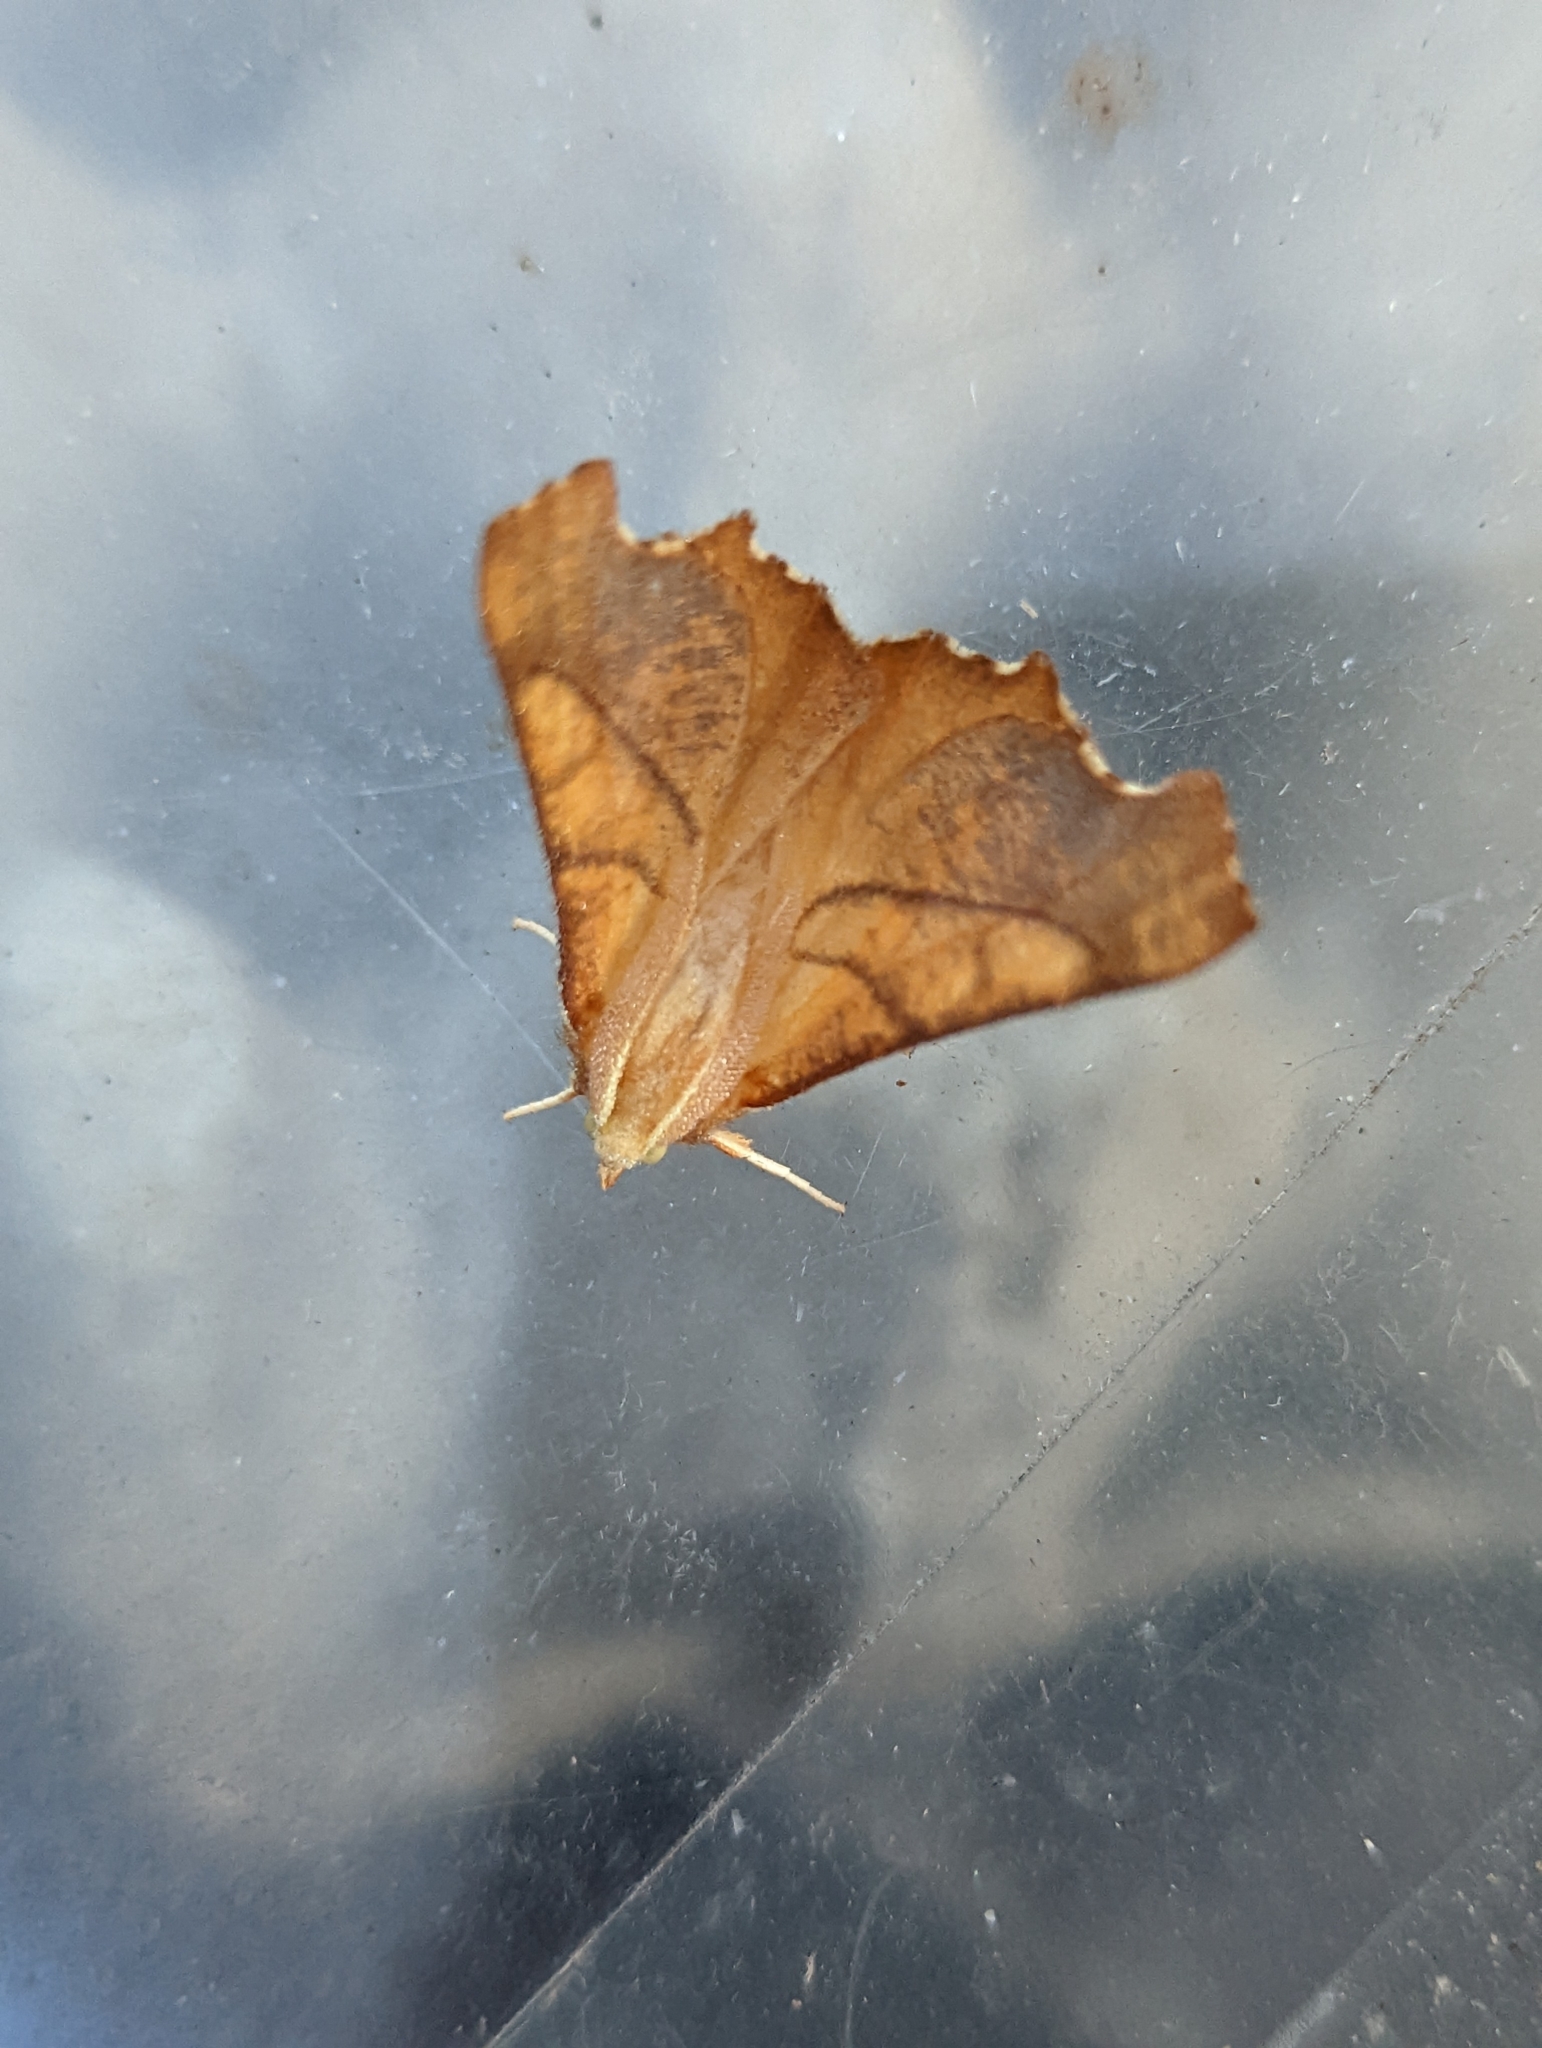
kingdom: Animalia
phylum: Arthropoda
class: Insecta
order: Lepidoptera
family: Geometridae
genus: Ennomos
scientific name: Ennomos fuscantaria
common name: Dusky thorn
